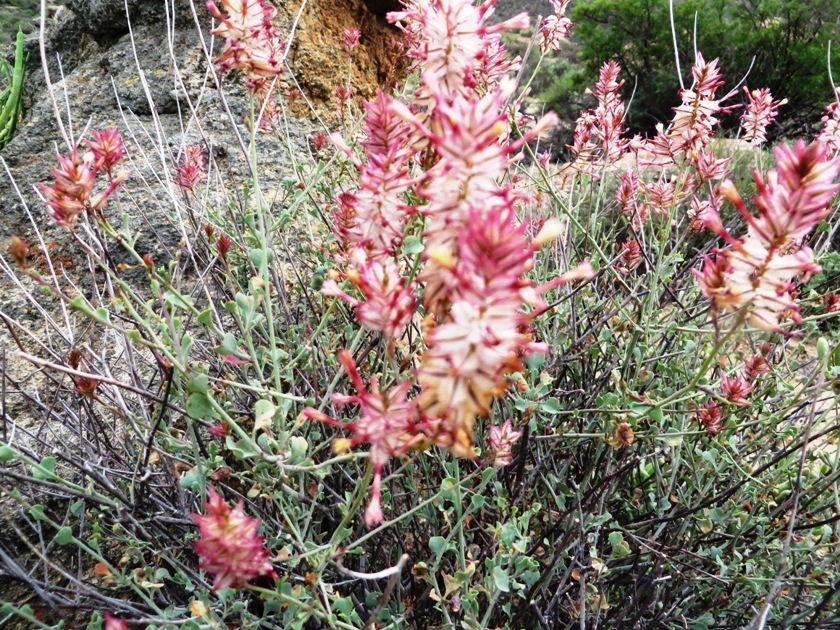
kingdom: Plantae
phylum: Tracheophyta
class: Magnoliopsida
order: Caryophyllales
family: Plumbaginaceae
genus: Dyerophytum
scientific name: Dyerophytum africanum
